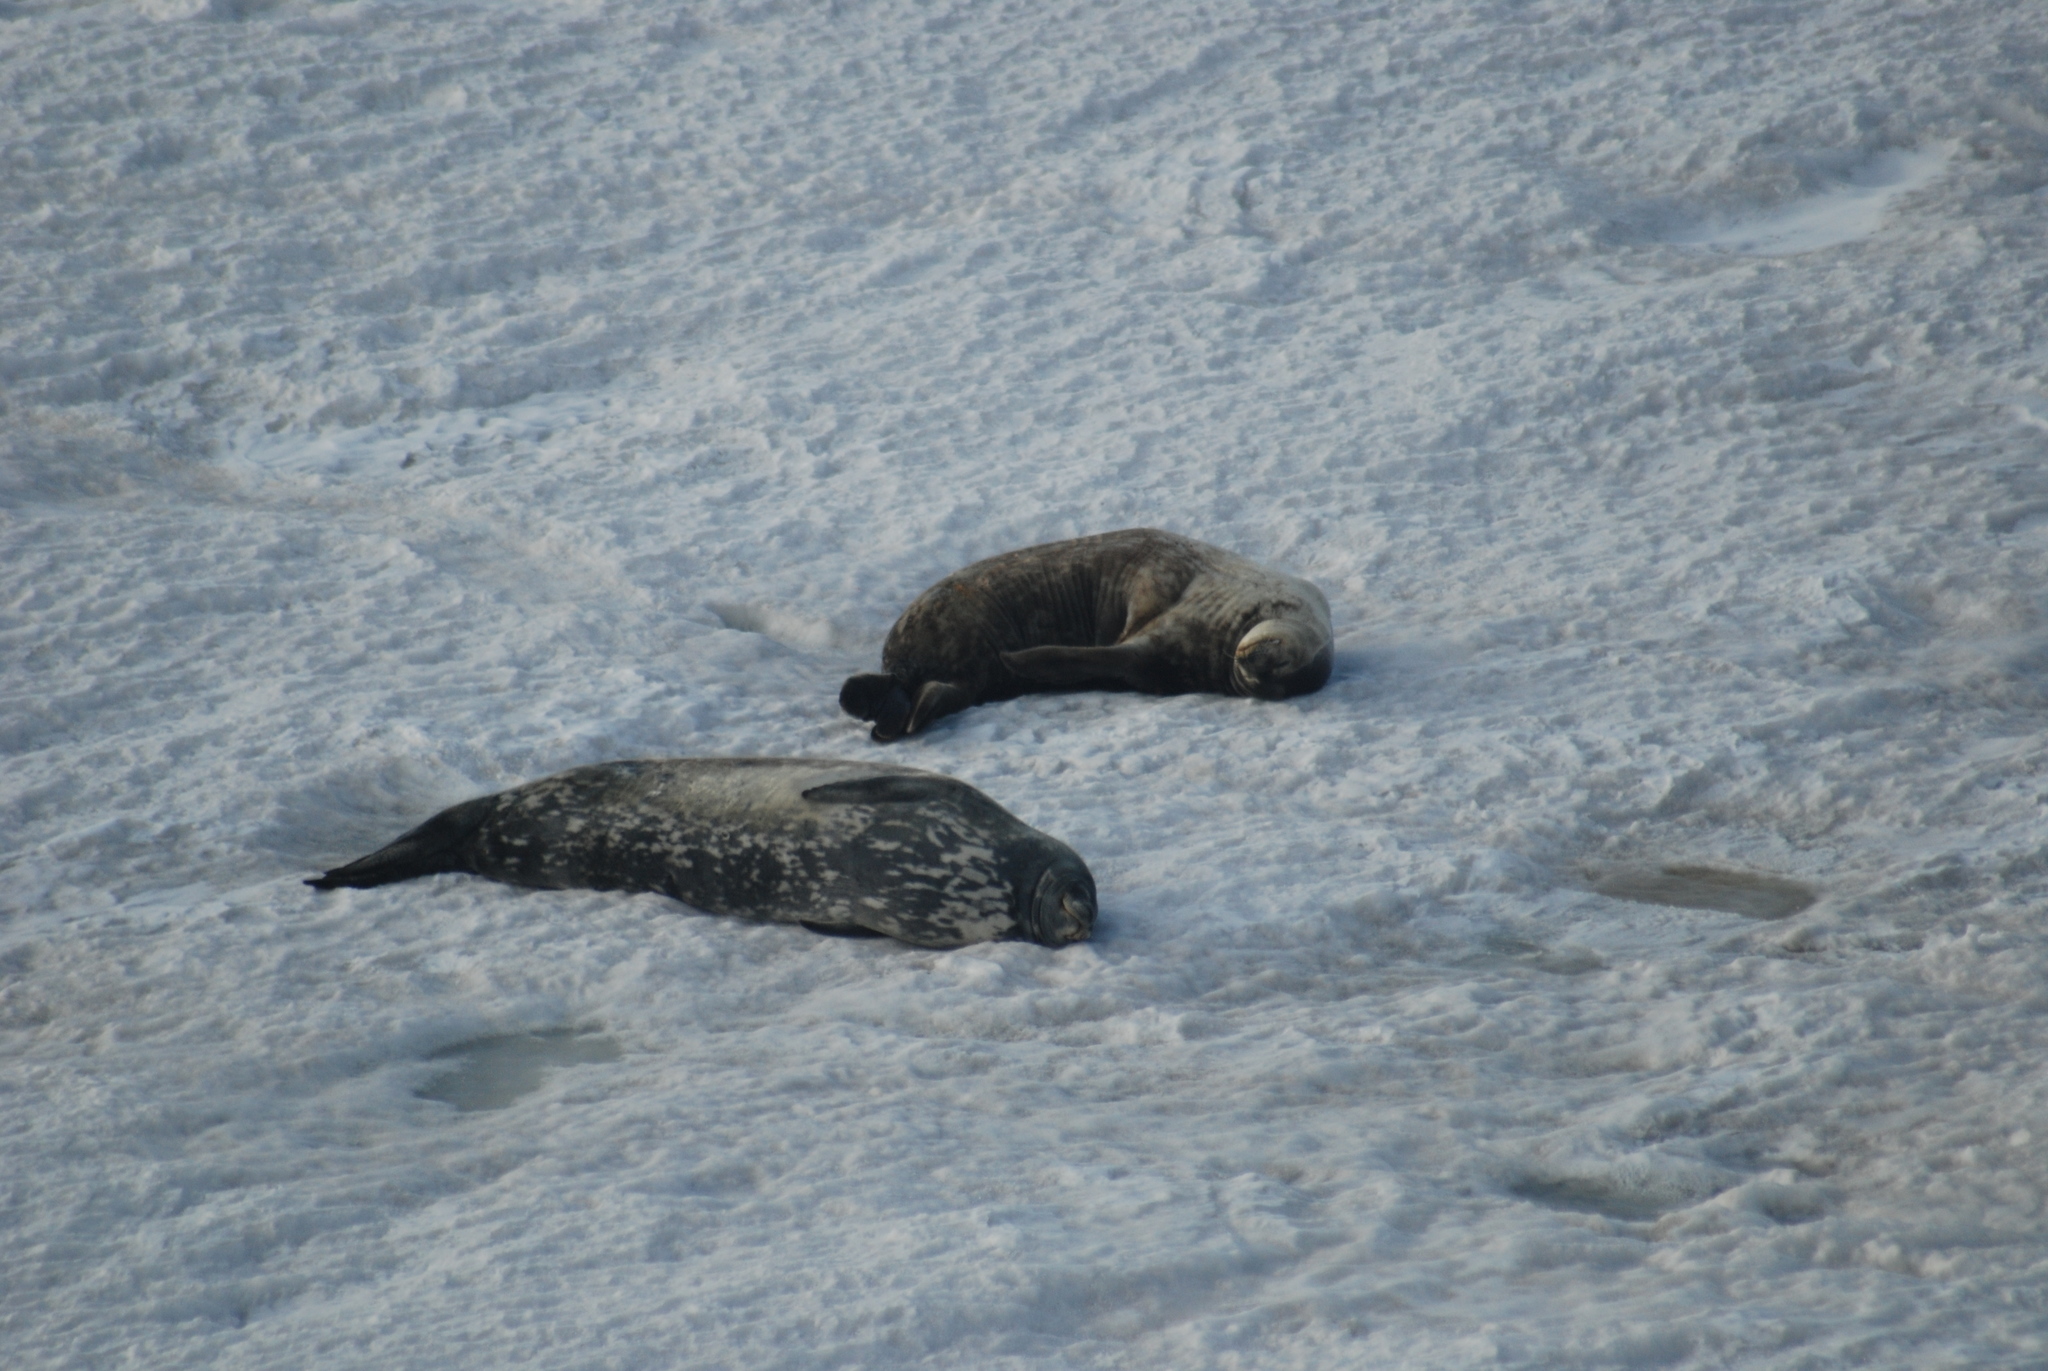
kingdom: Animalia
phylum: Chordata
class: Mammalia
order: Carnivora
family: Phocidae
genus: Leptonychotes
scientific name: Leptonychotes weddellii
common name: Weddell seal
